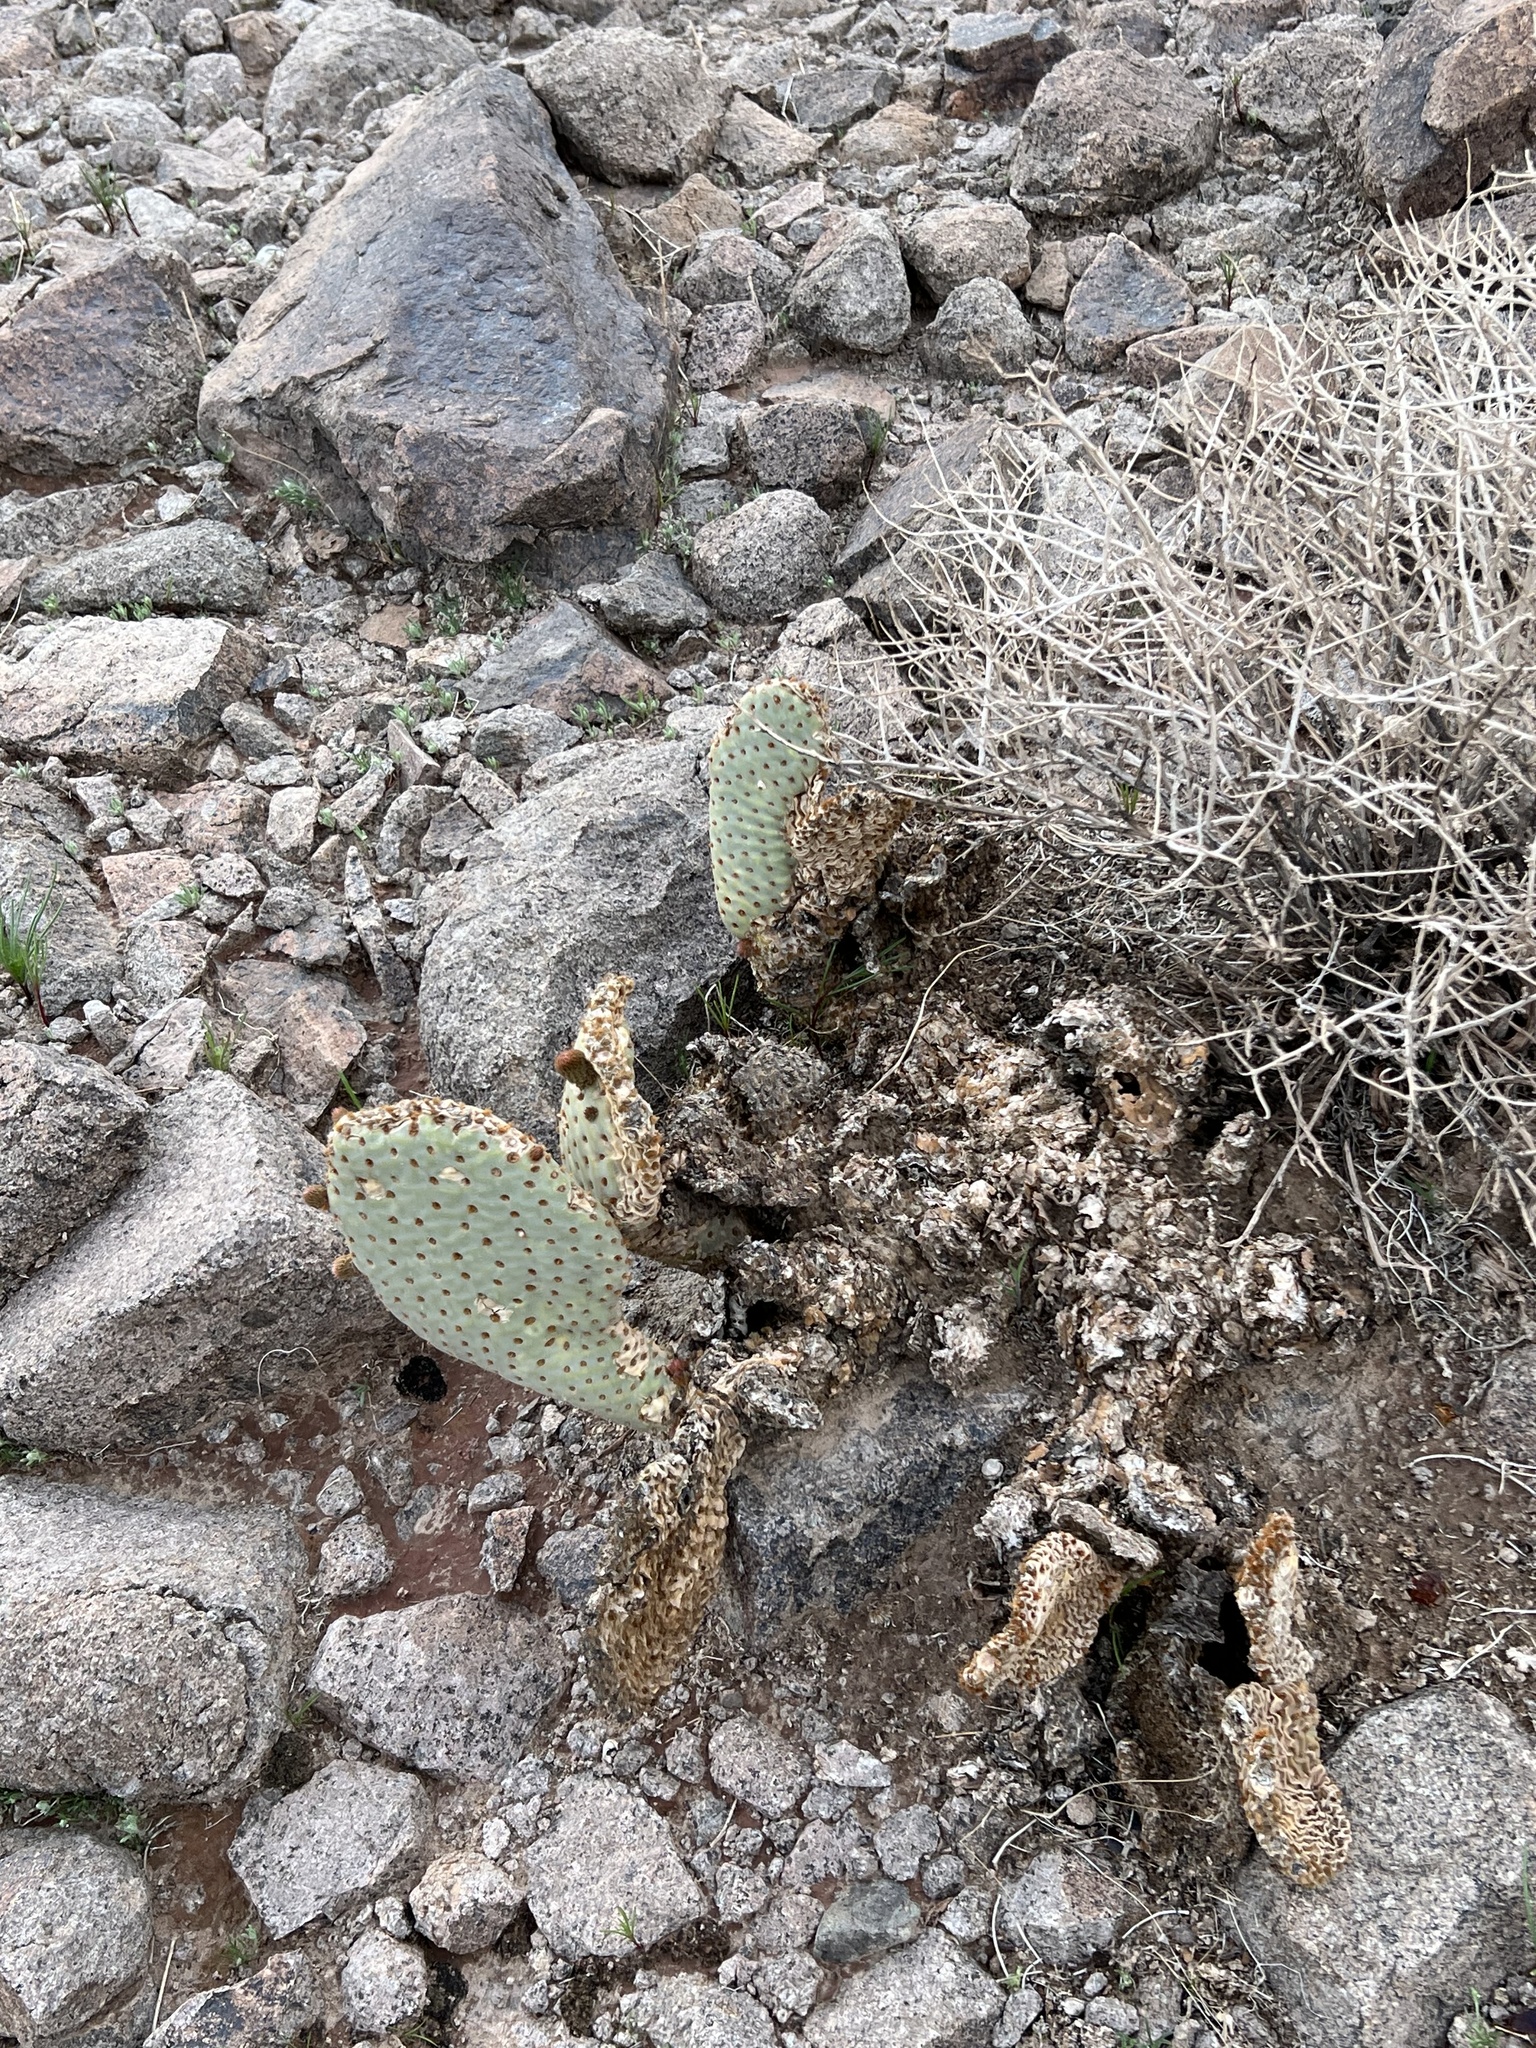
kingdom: Plantae
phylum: Tracheophyta
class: Magnoliopsida
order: Caryophyllales
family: Cactaceae
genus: Opuntia
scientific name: Opuntia basilaris
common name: Beavertail prickly-pear
